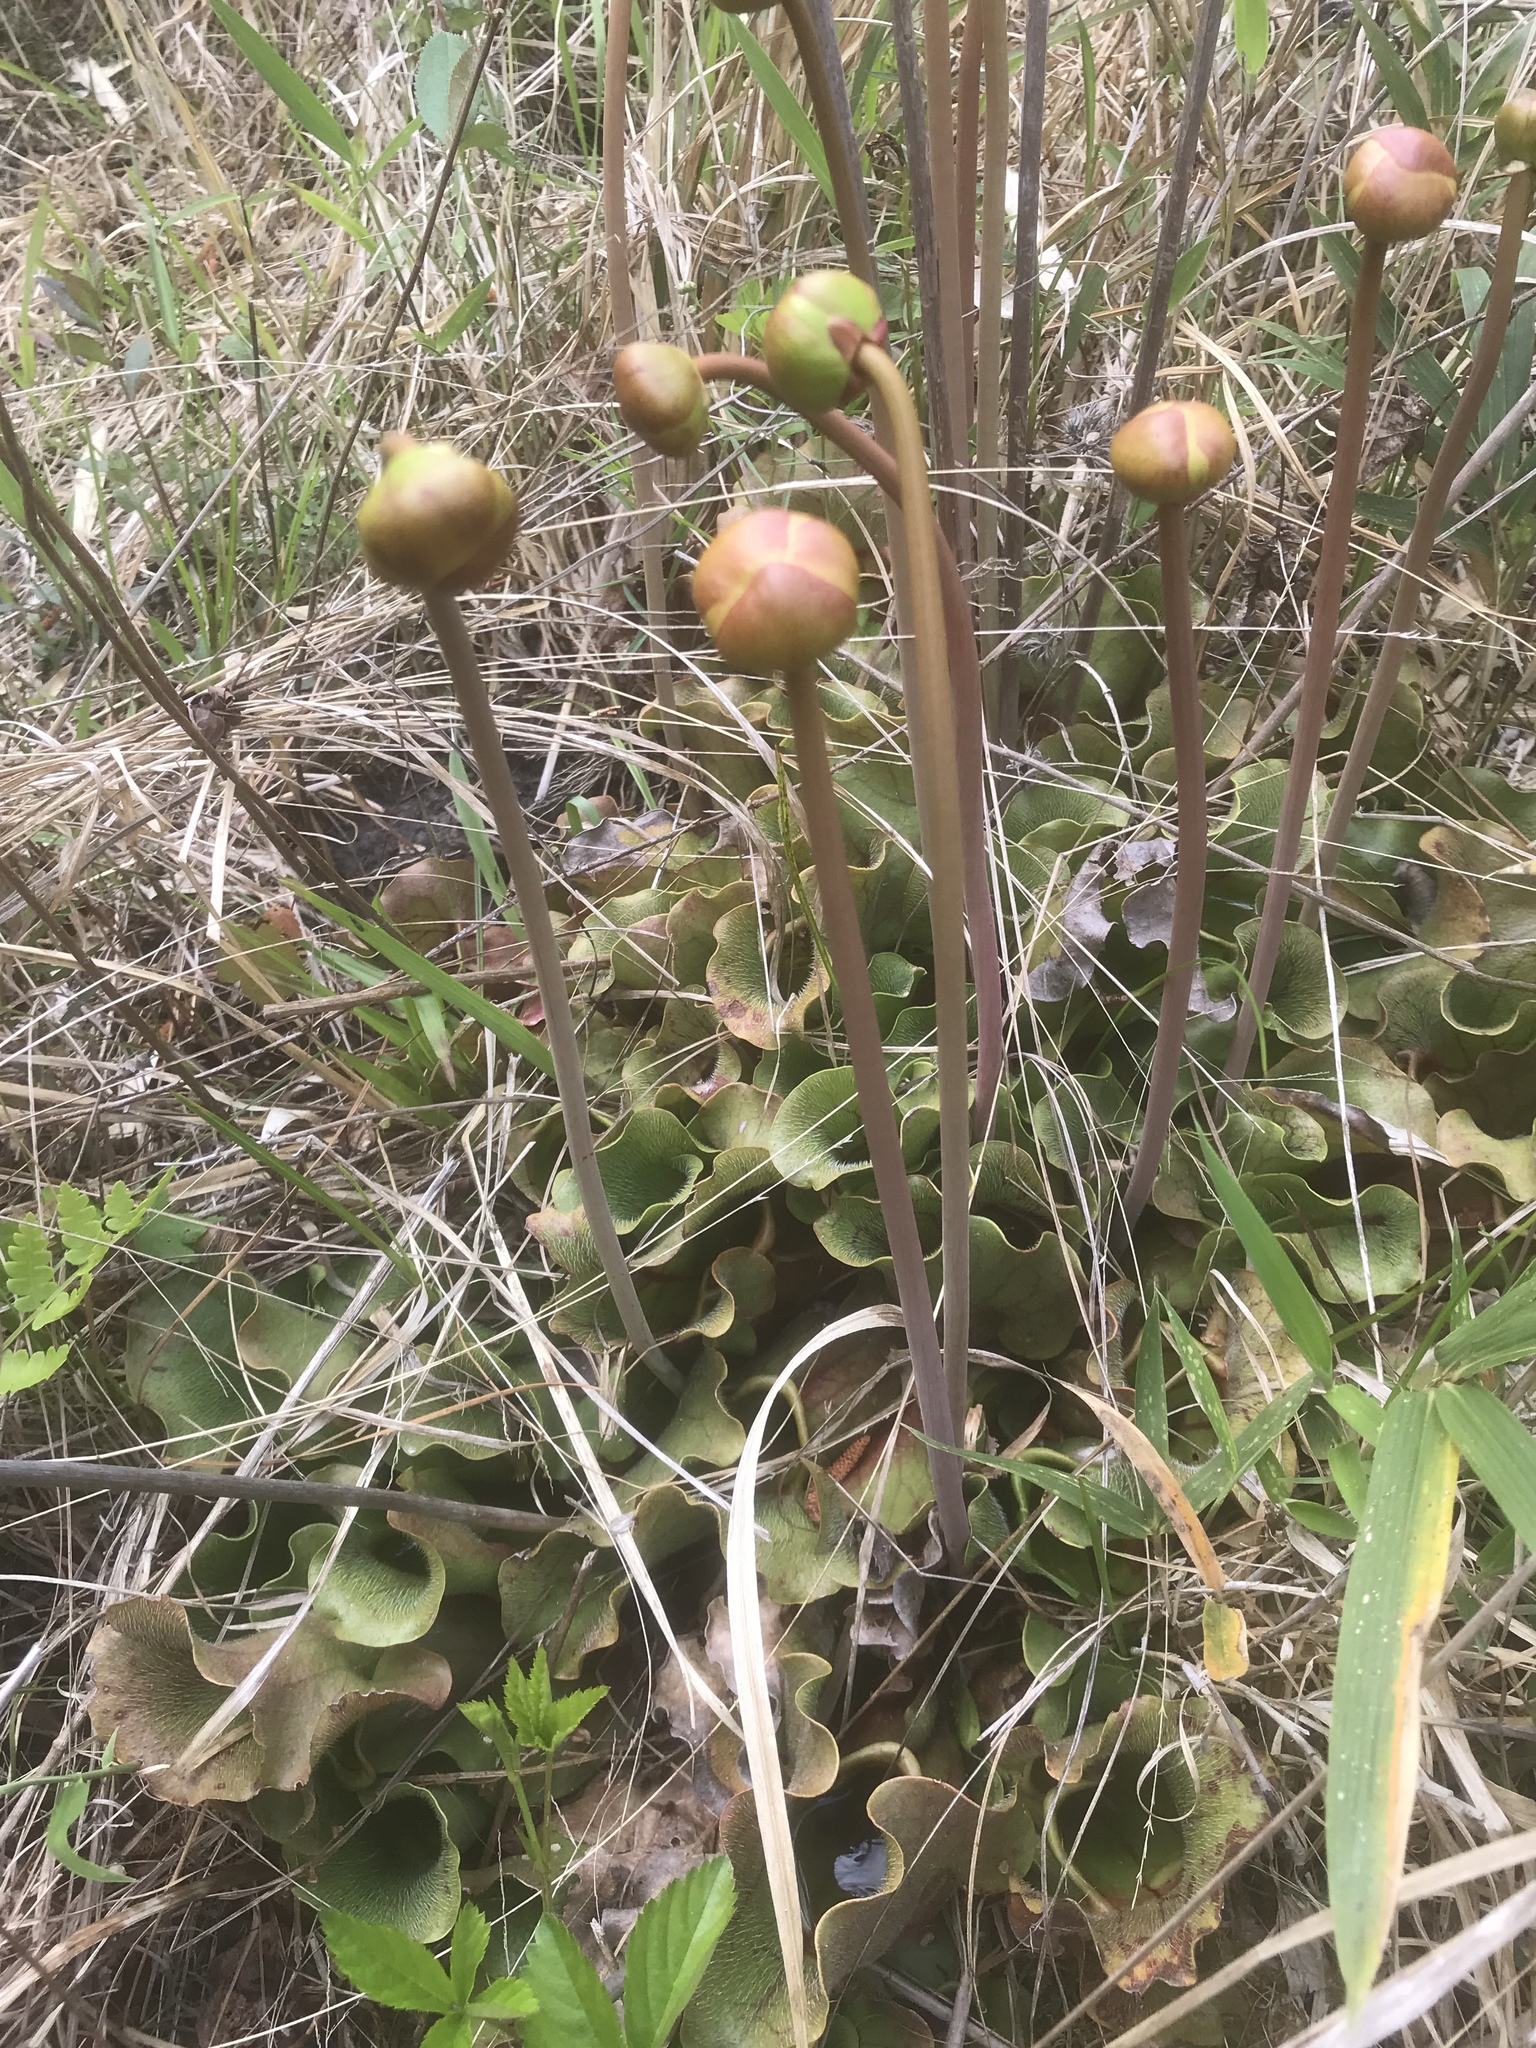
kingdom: Plantae
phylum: Tracheophyta
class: Magnoliopsida
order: Ericales
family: Sarraceniaceae
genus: Sarracenia
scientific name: Sarracenia purpurea
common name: Pitcherplant
